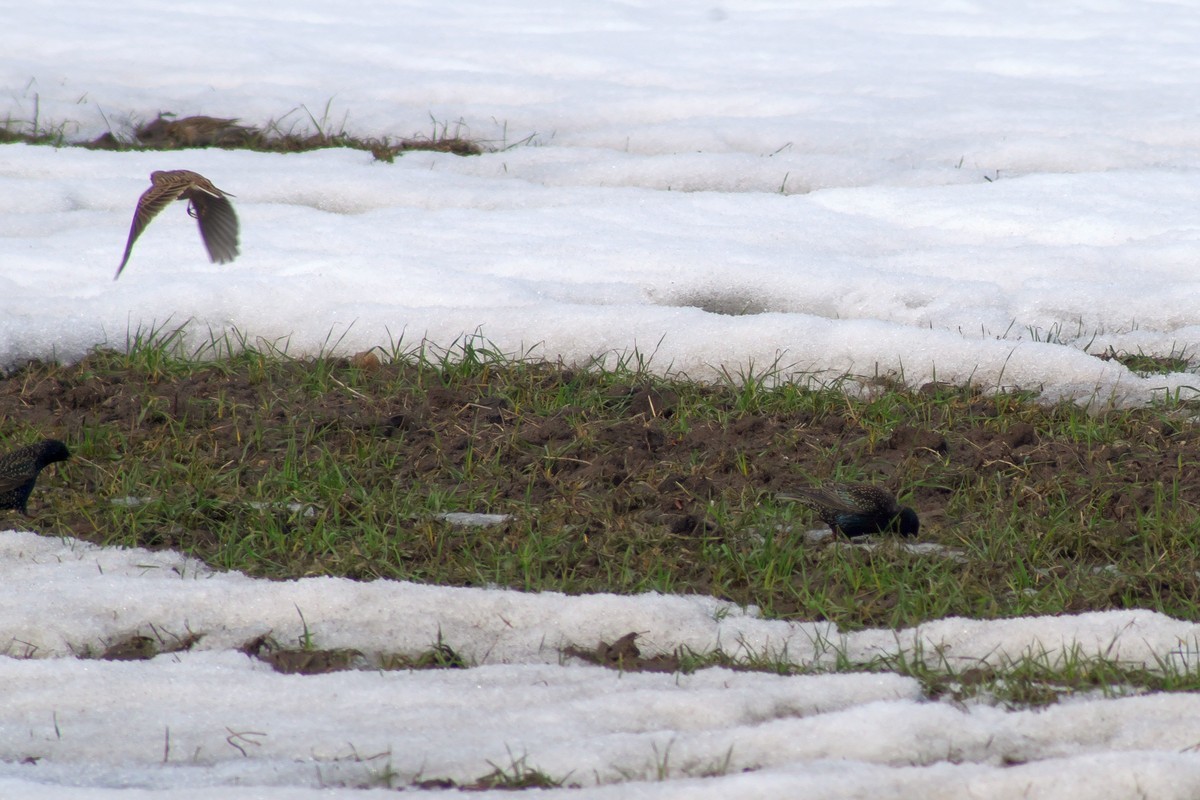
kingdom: Animalia
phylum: Chordata
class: Aves
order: Passeriformes
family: Sturnidae
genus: Sturnus
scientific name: Sturnus vulgaris
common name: Common starling
